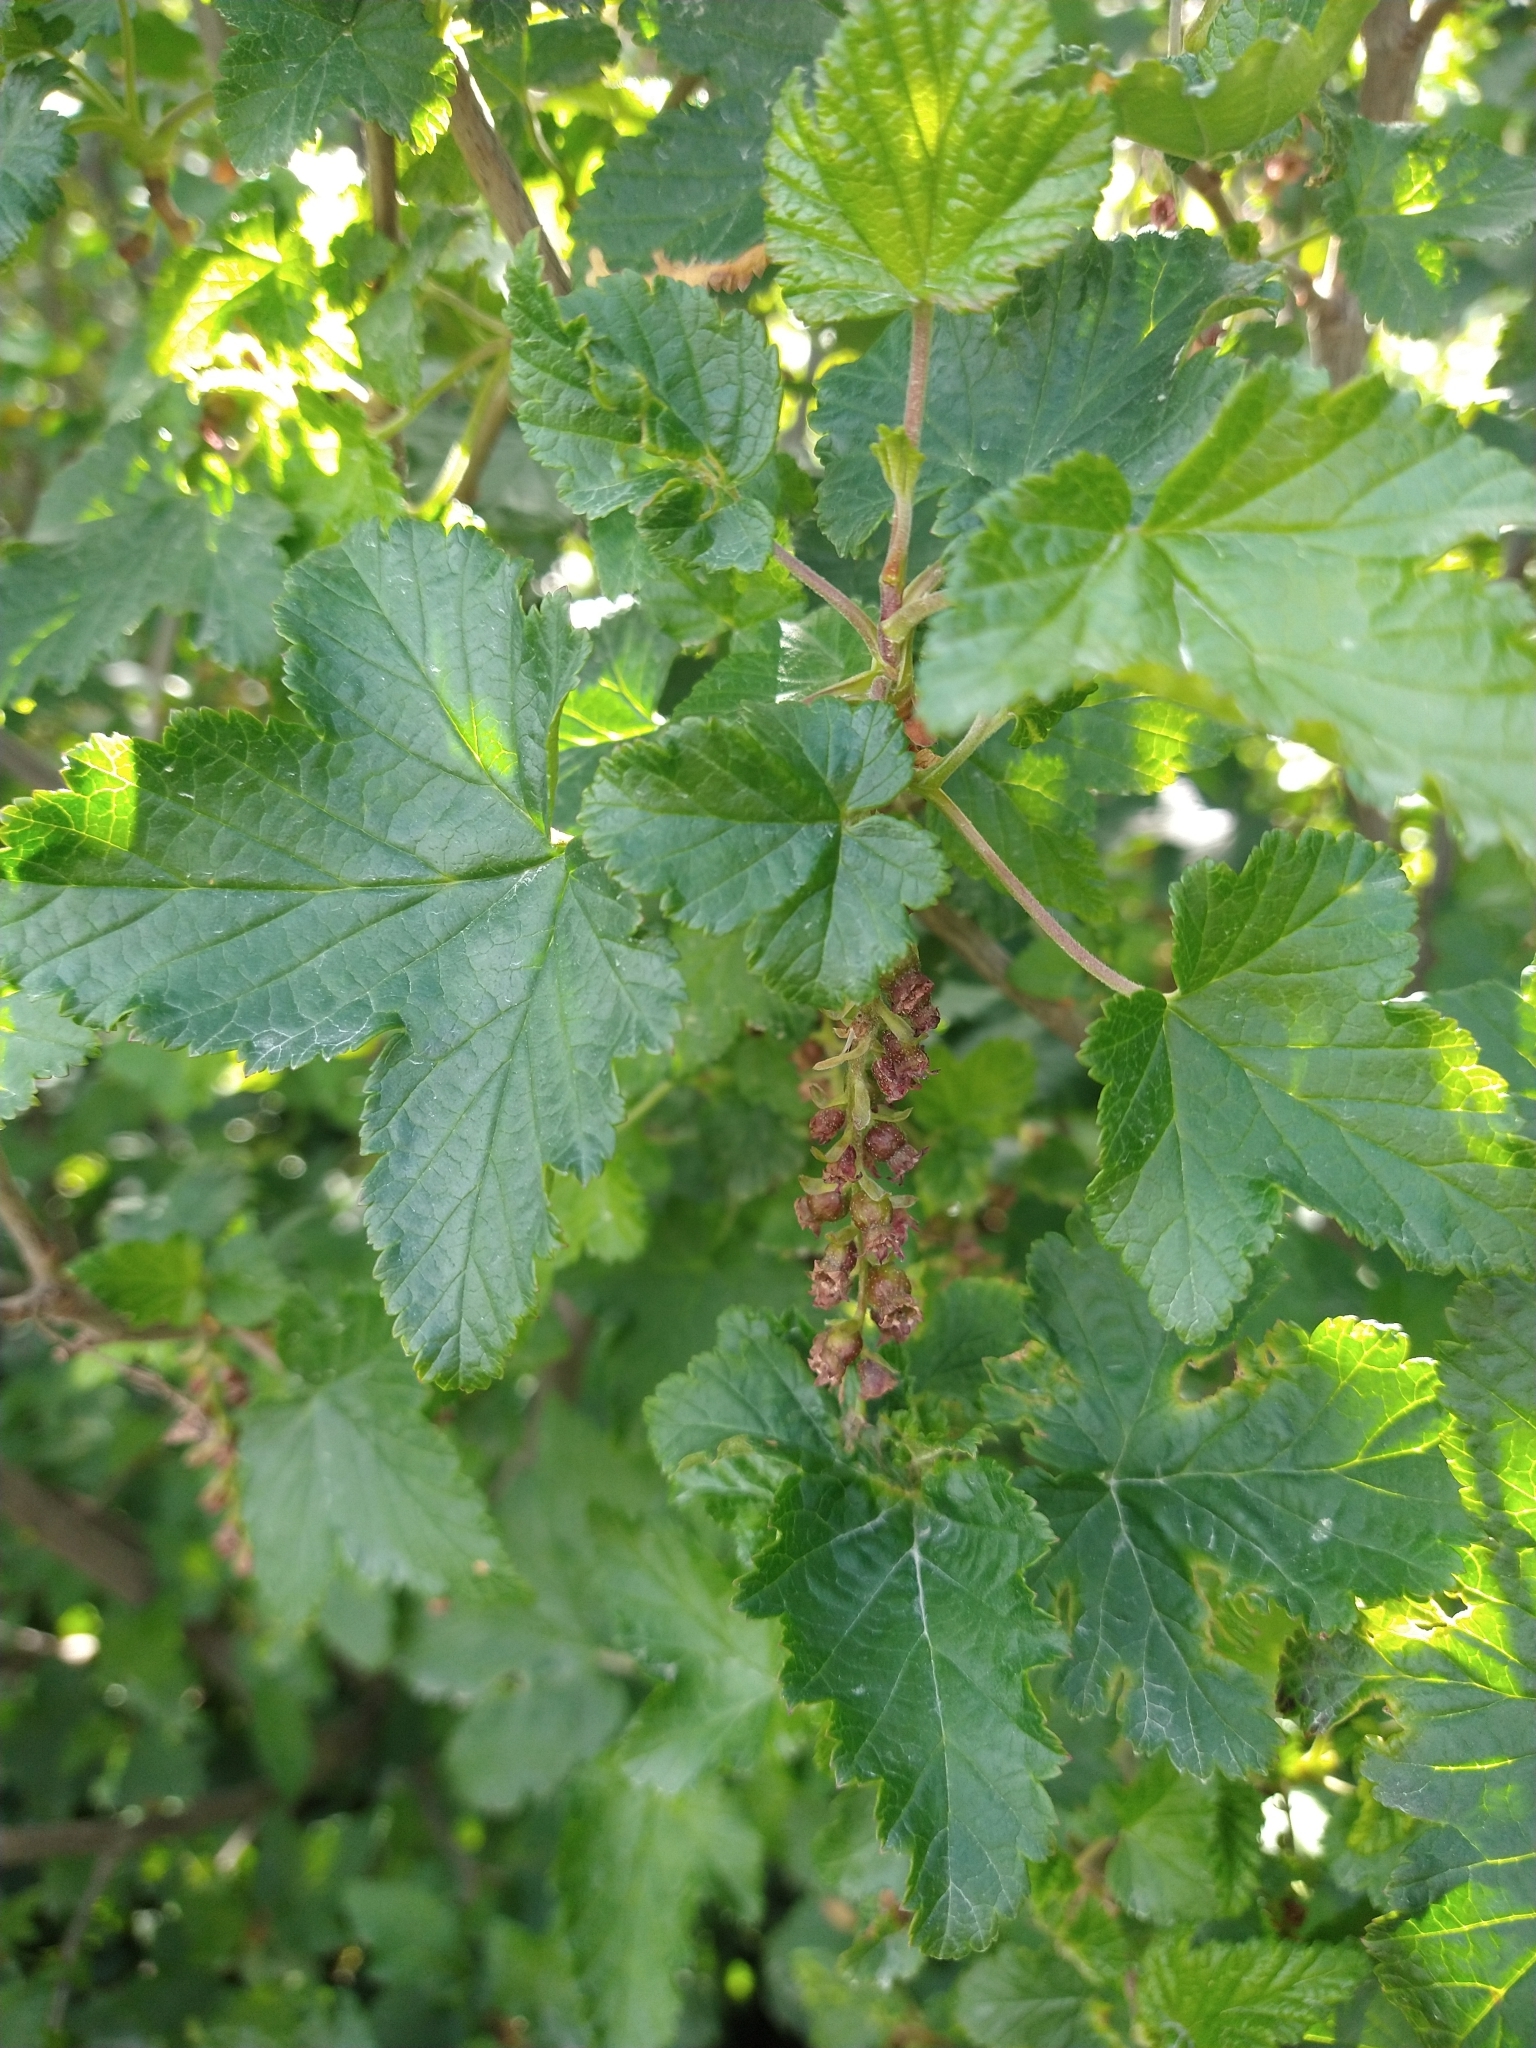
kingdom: Plantae
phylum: Tracheophyta
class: Magnoliopsida
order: Saxifragales
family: Grossulariaceae
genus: Ribes
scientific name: Ribes magellanicum
